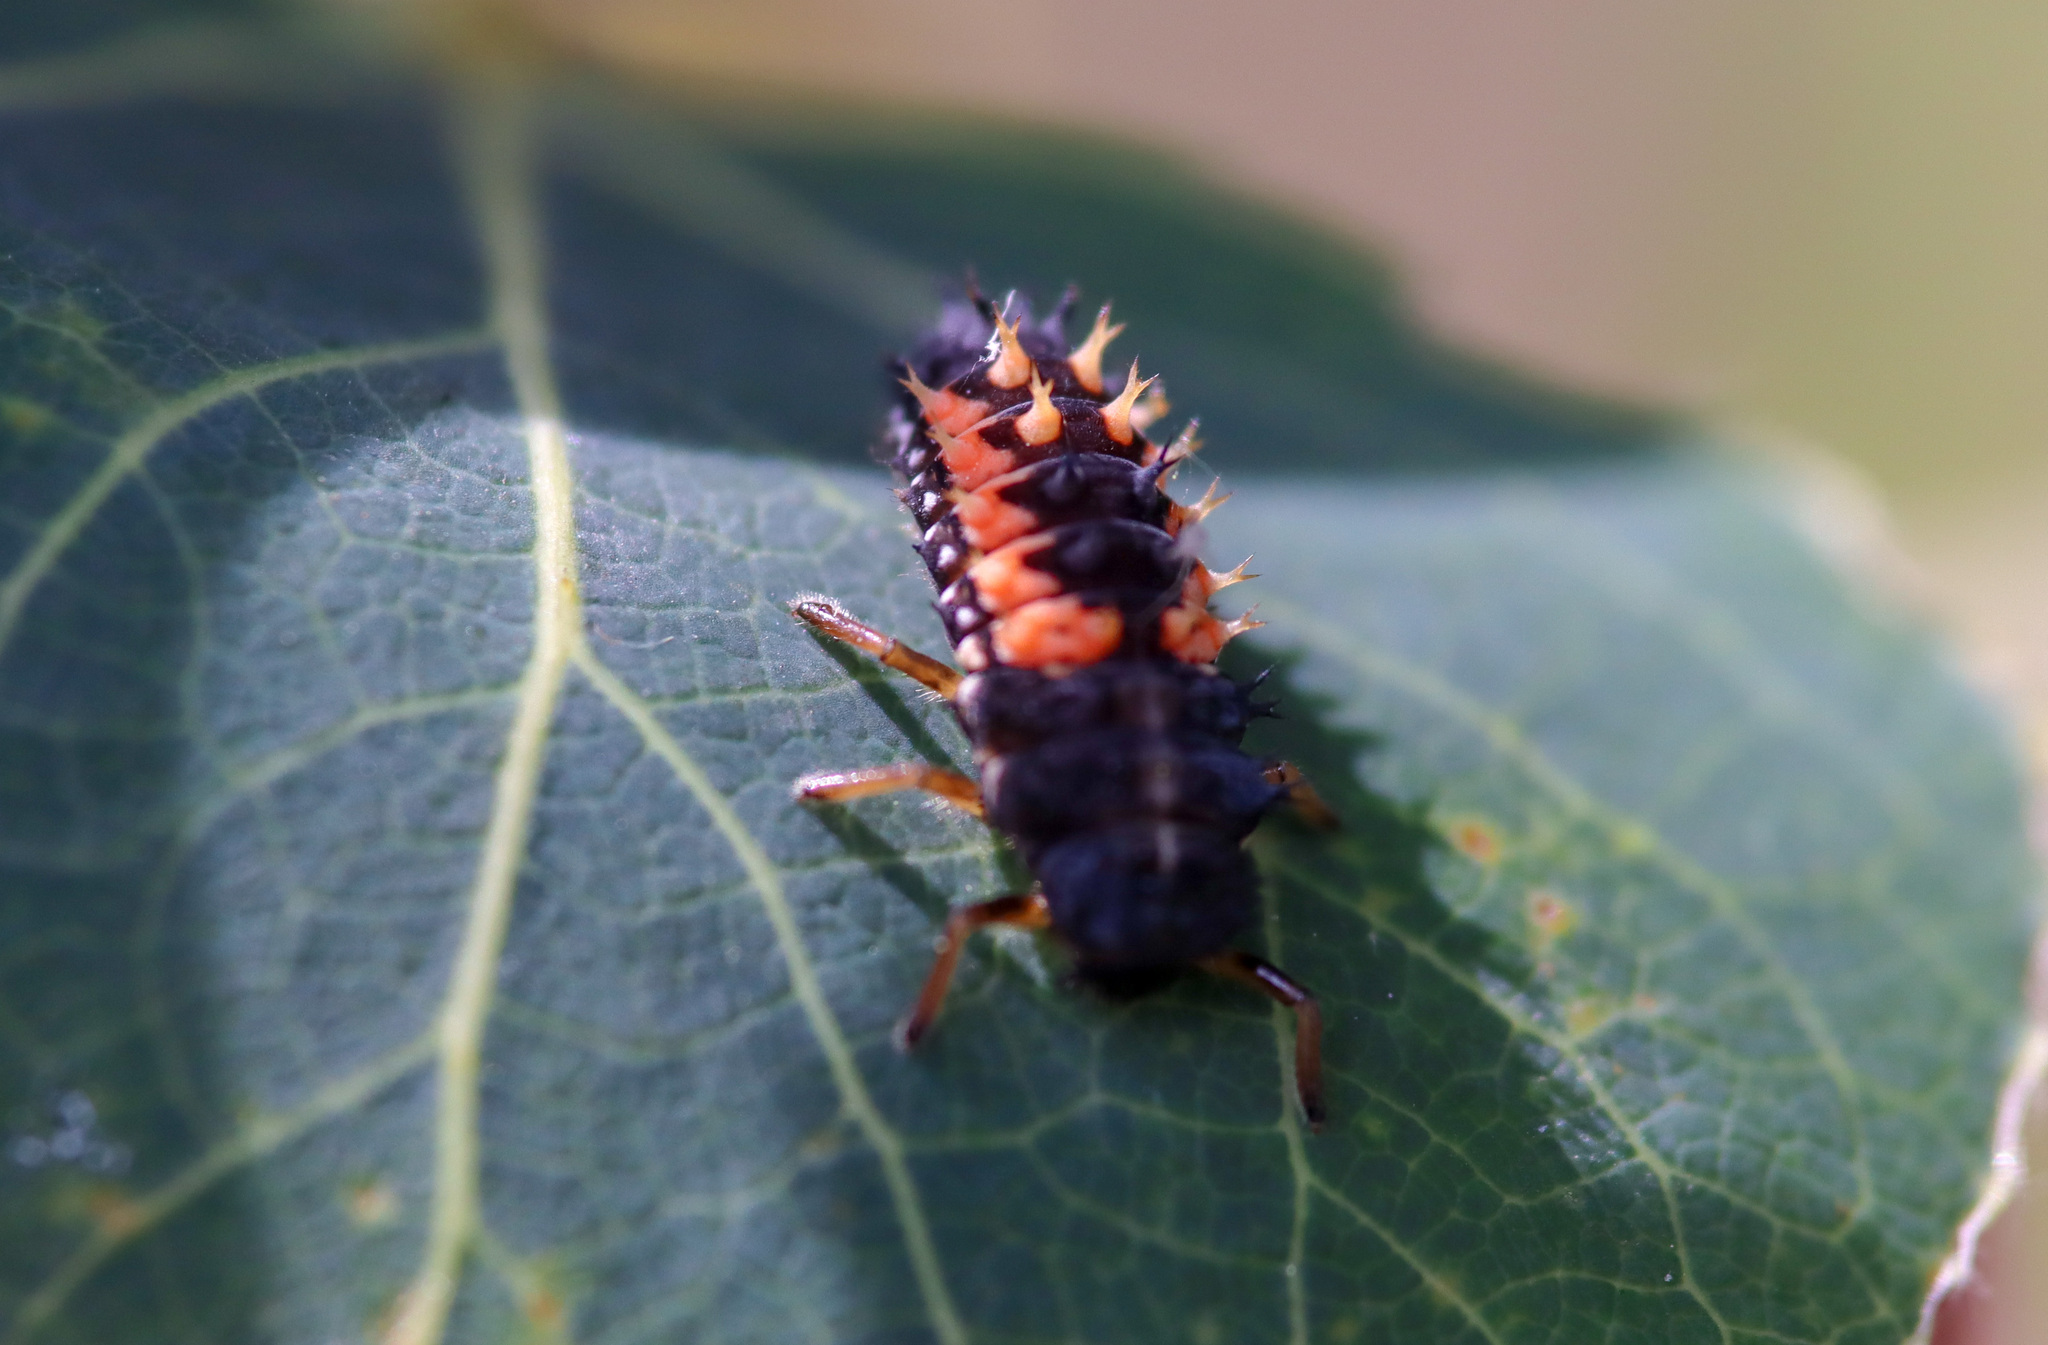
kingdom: Animalia
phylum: Arthropoda
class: Insecta
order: Coleoptera
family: Coccinellidae
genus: Harmonia
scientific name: Harmonia axyridis
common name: Harlequin ladybird
